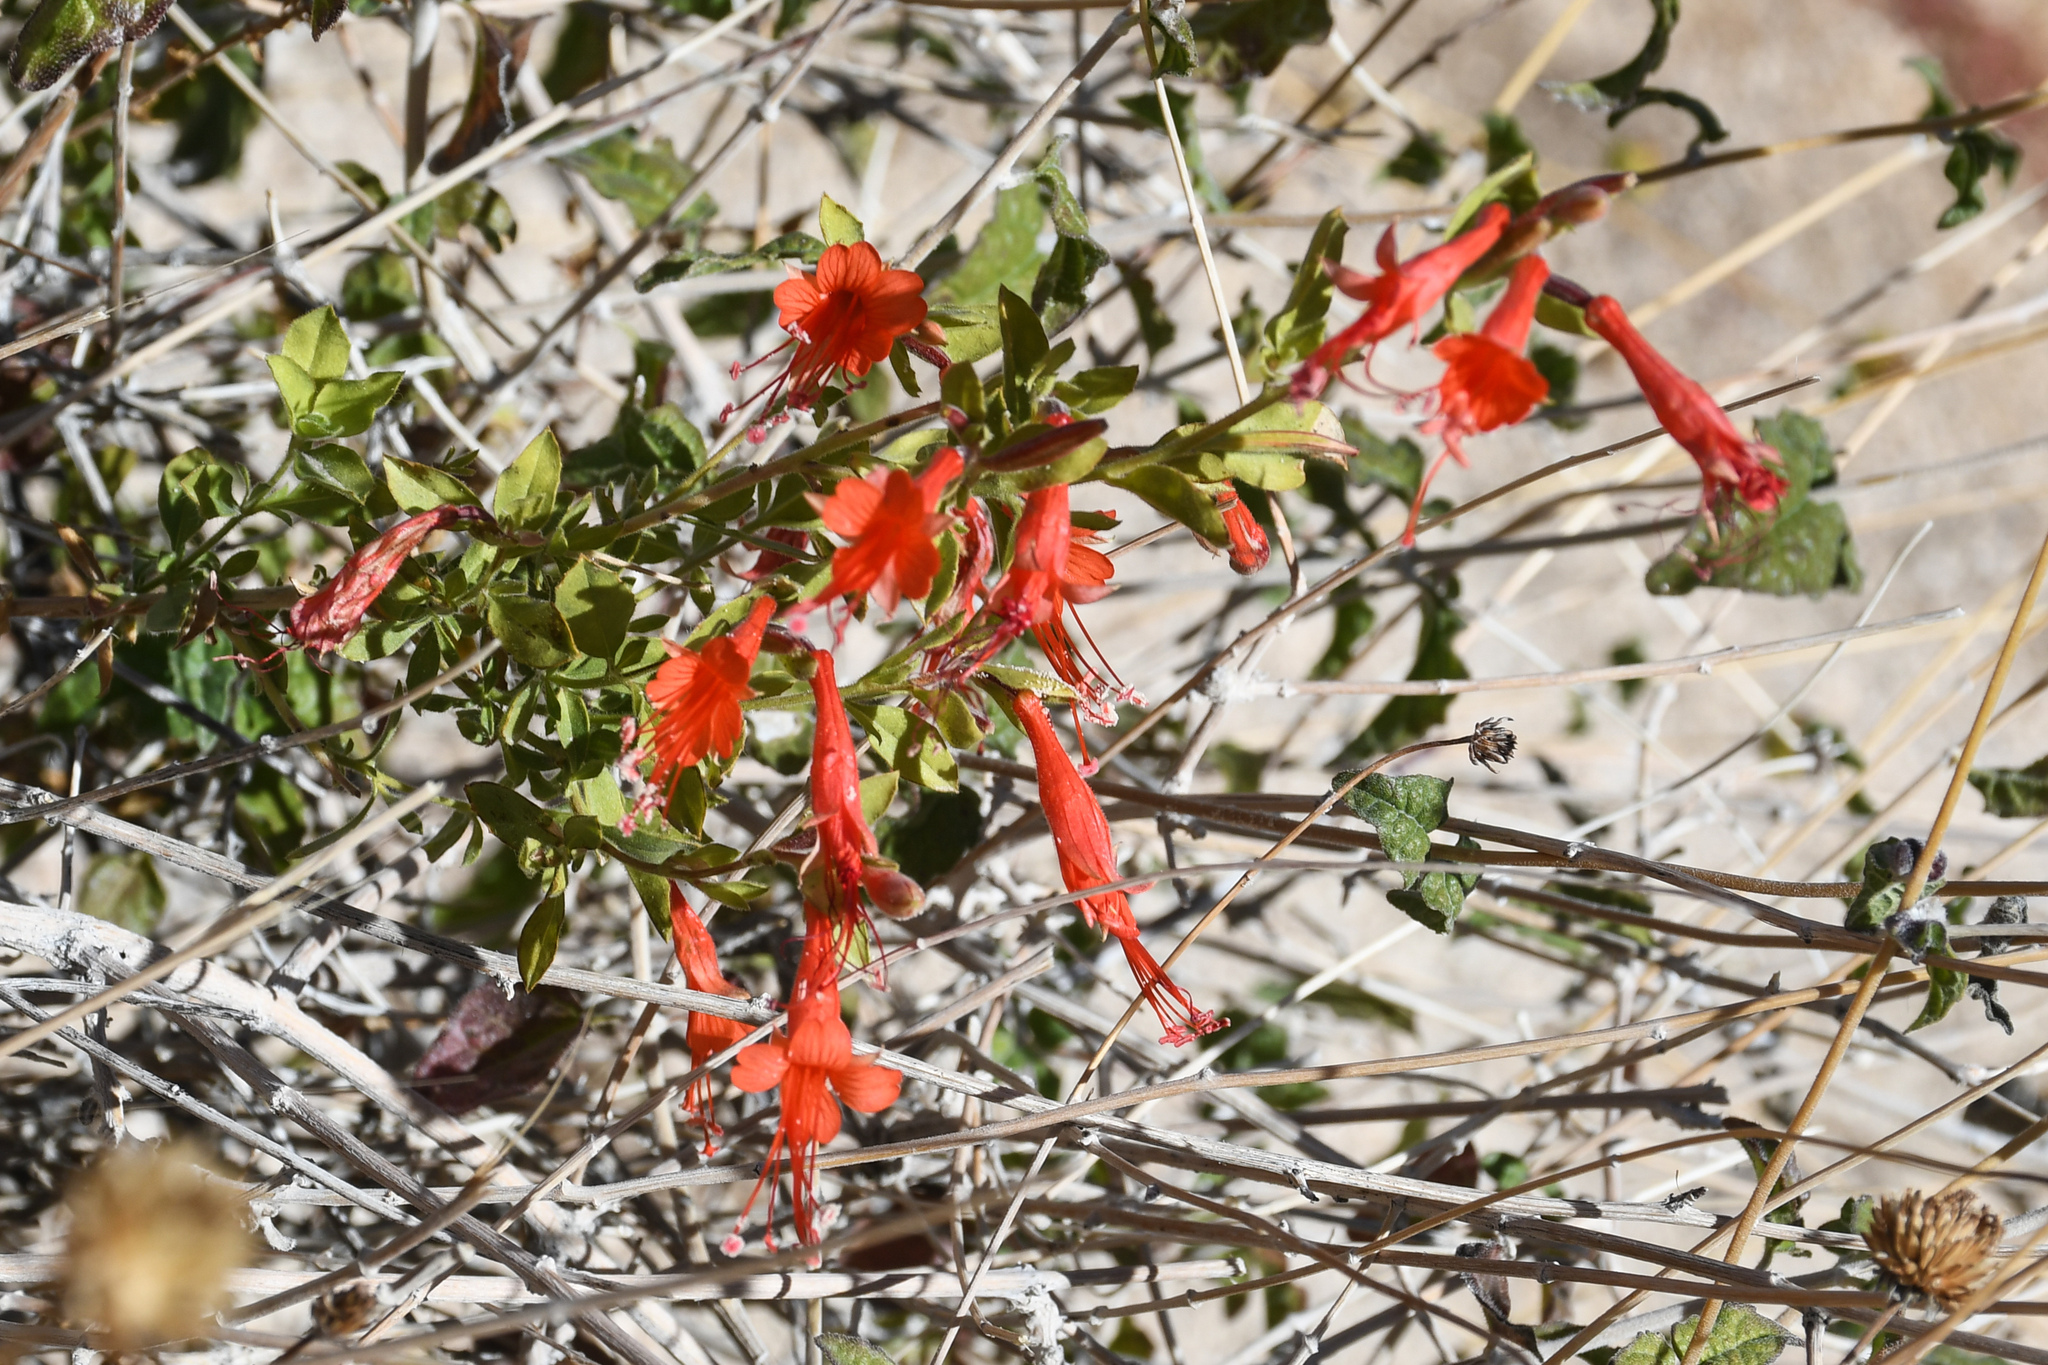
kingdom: Plantae
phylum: Tracheophyta
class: Magnoliopsida
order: Myrtales
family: Onagraceae
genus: Epilobium
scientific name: Epilobium canum
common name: California-fuchsia
